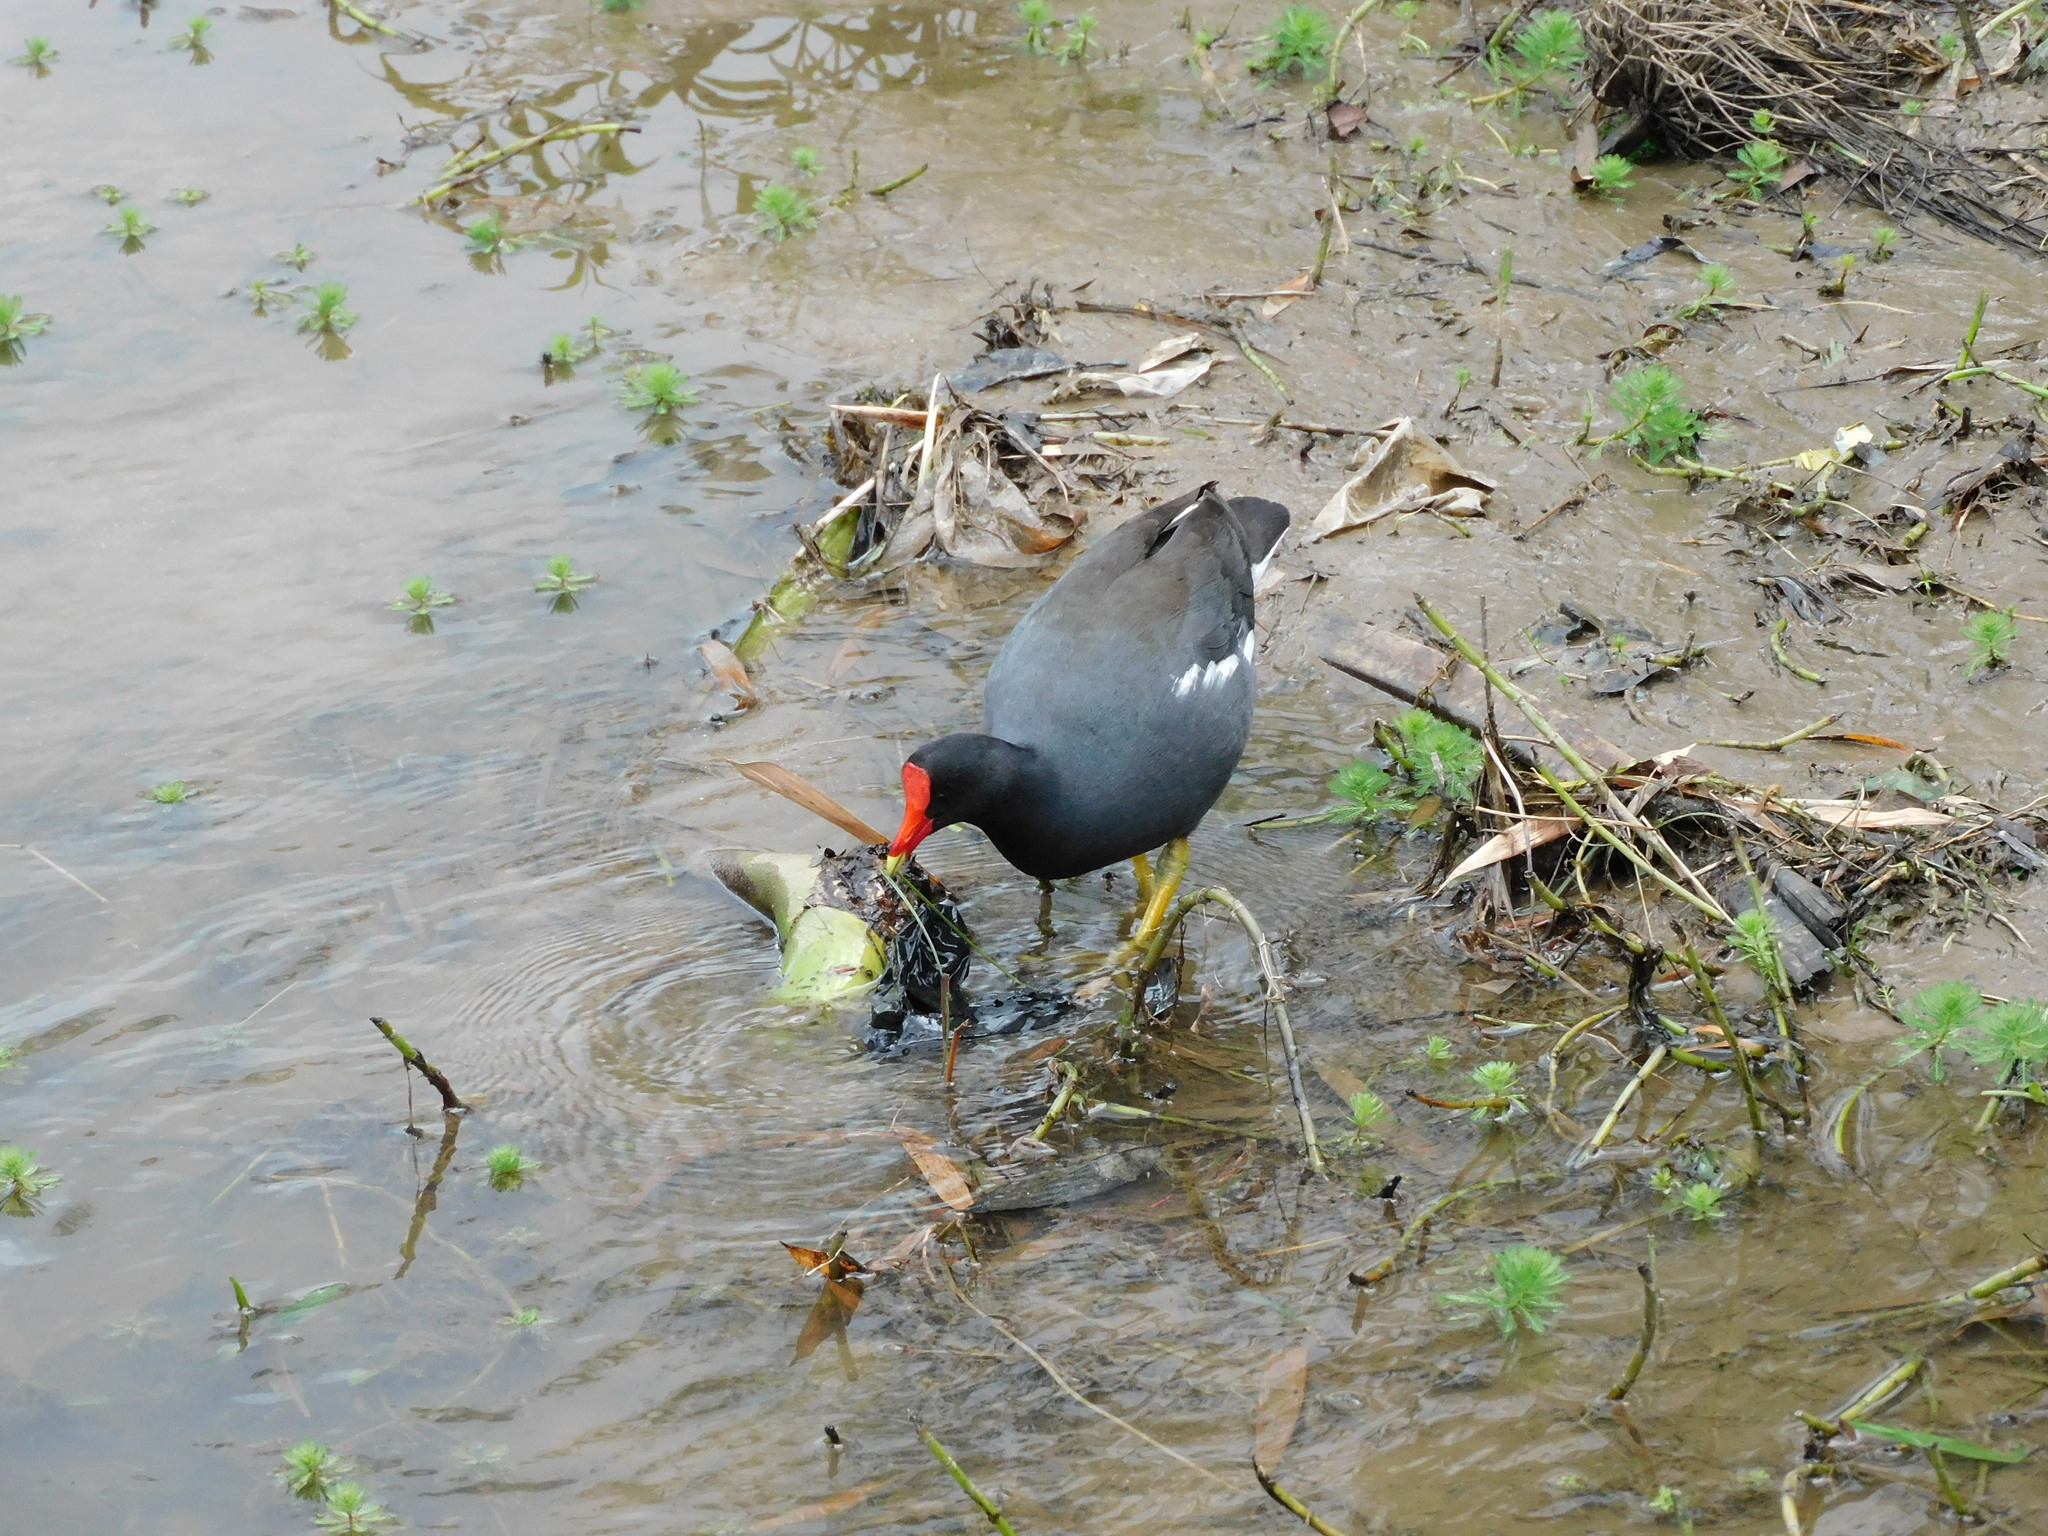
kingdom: Animalia
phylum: Chordata
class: Aves
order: Gruiformes
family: Rallidae
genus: Gallinula
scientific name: Gallinula chloropus
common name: Common moorhen
